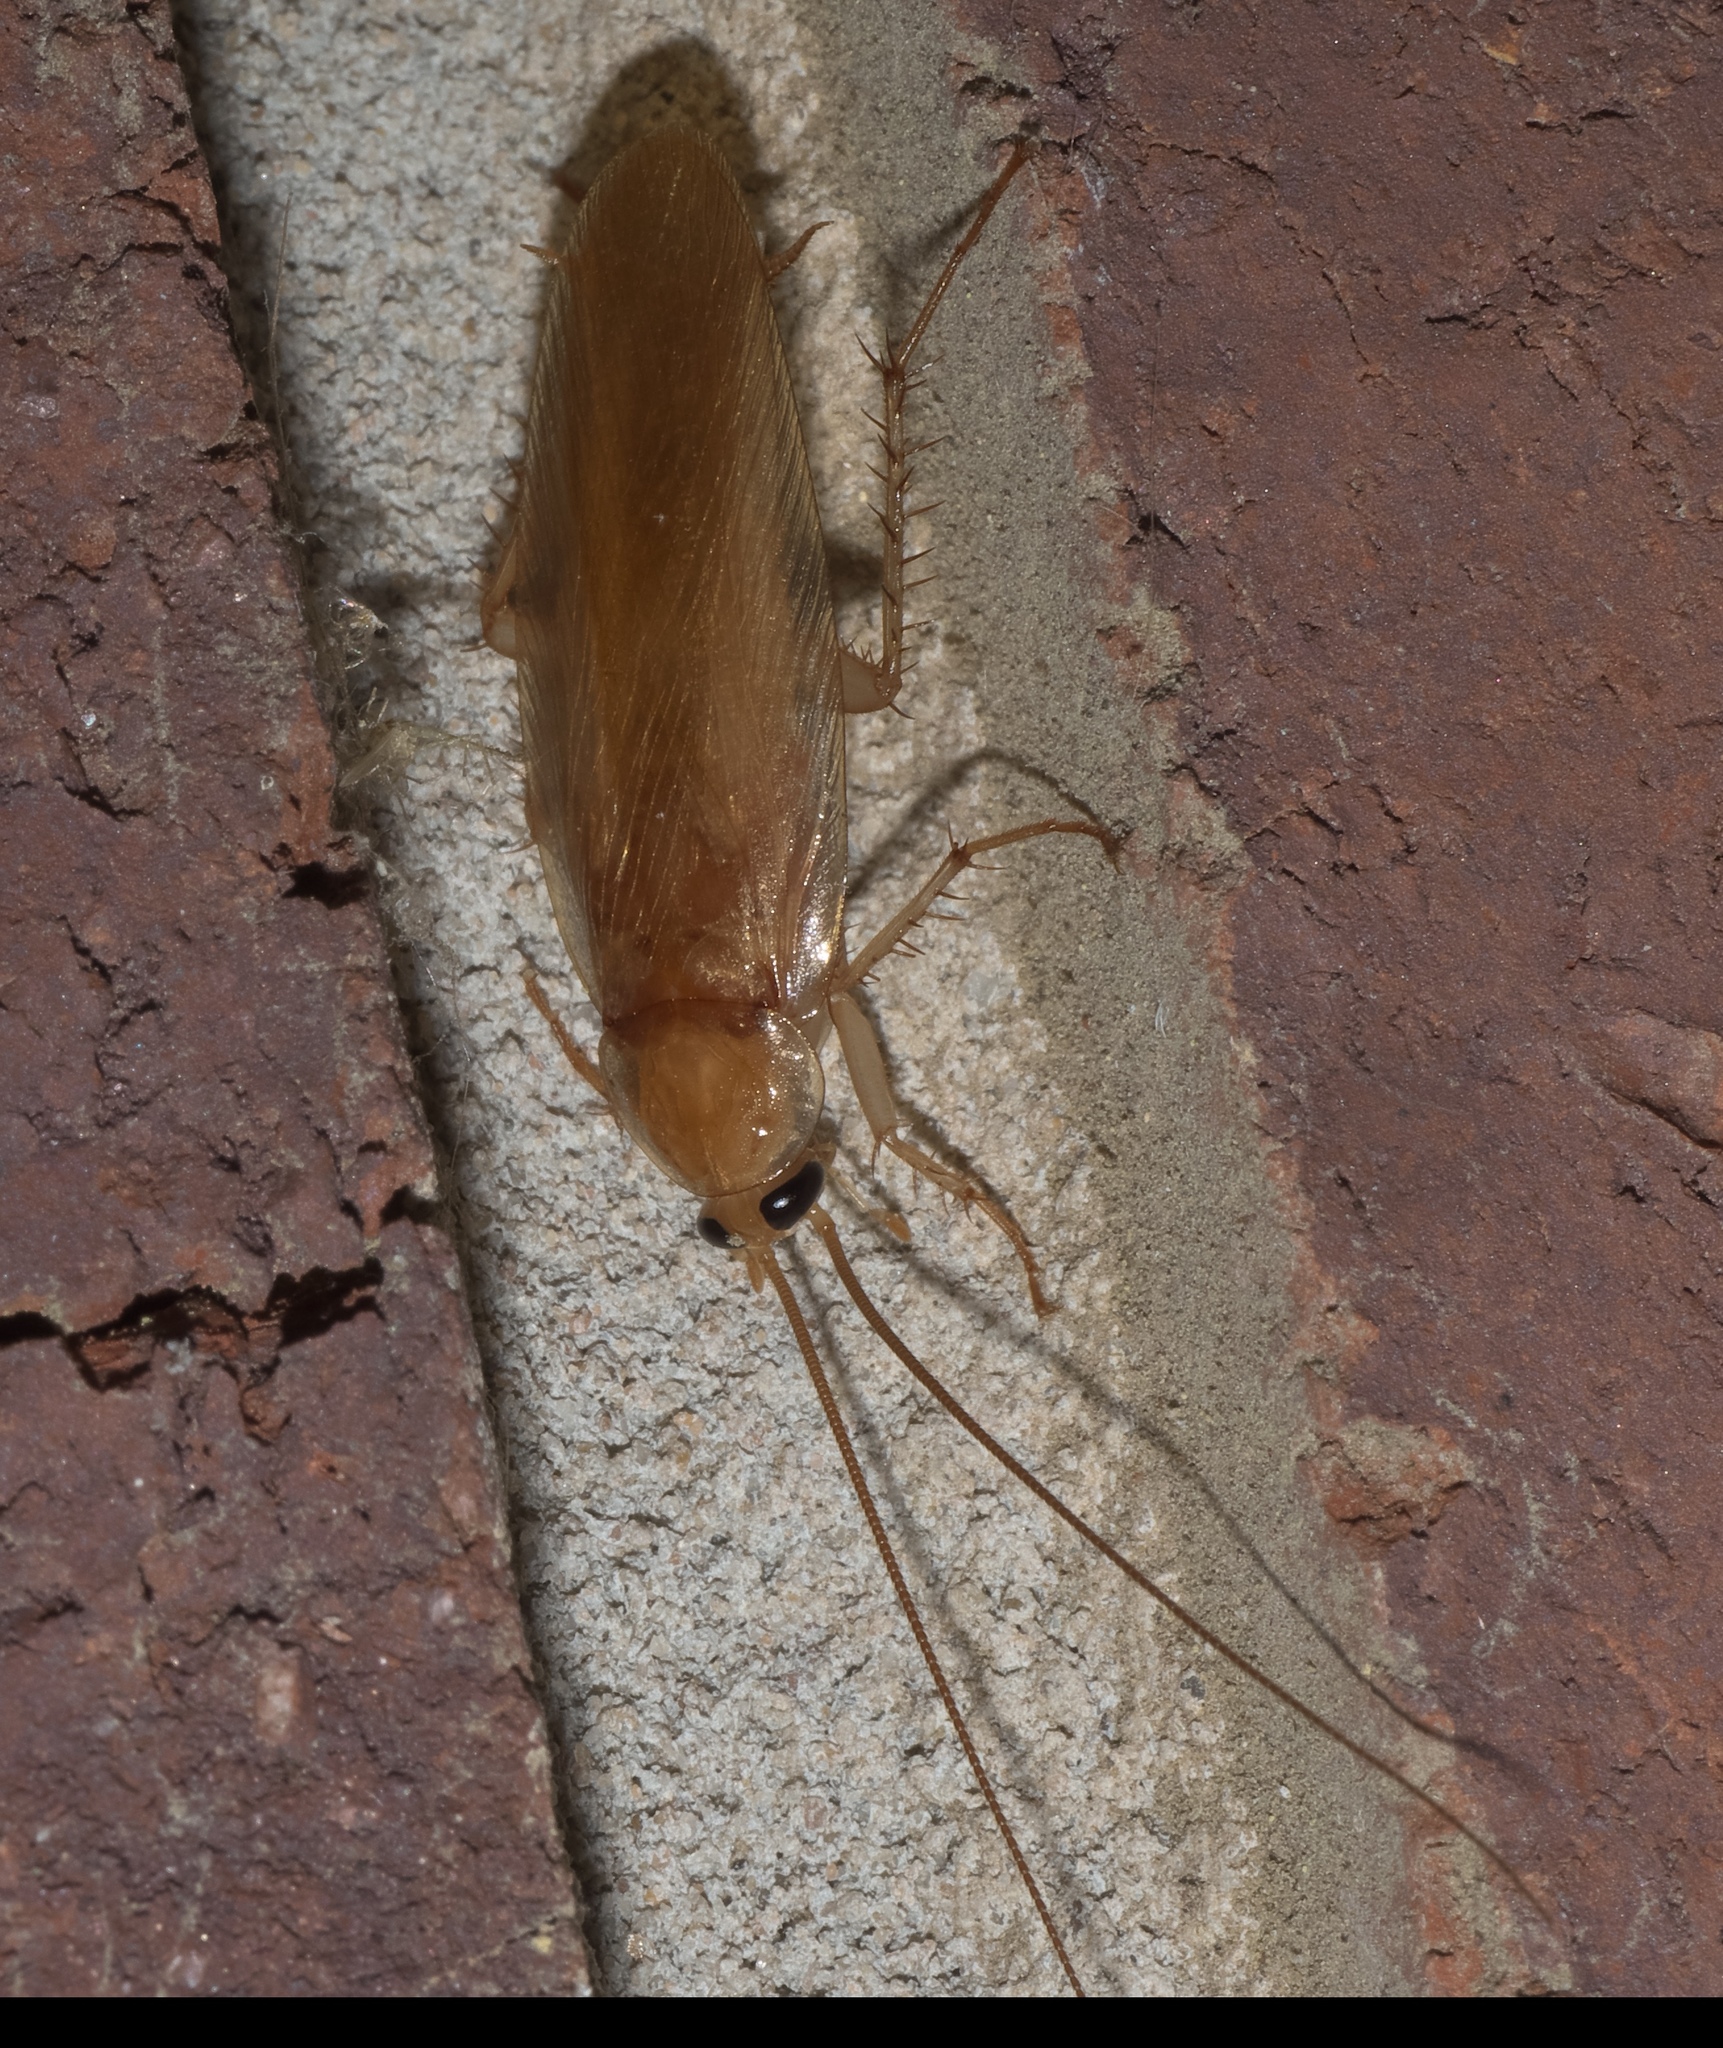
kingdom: Animalia
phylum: Arthropoda
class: Insecta
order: Blattodea
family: Ectobiidae
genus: Parcoblatta
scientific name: Parcoblatta fulvescens
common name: Fulvous wood cockroach
